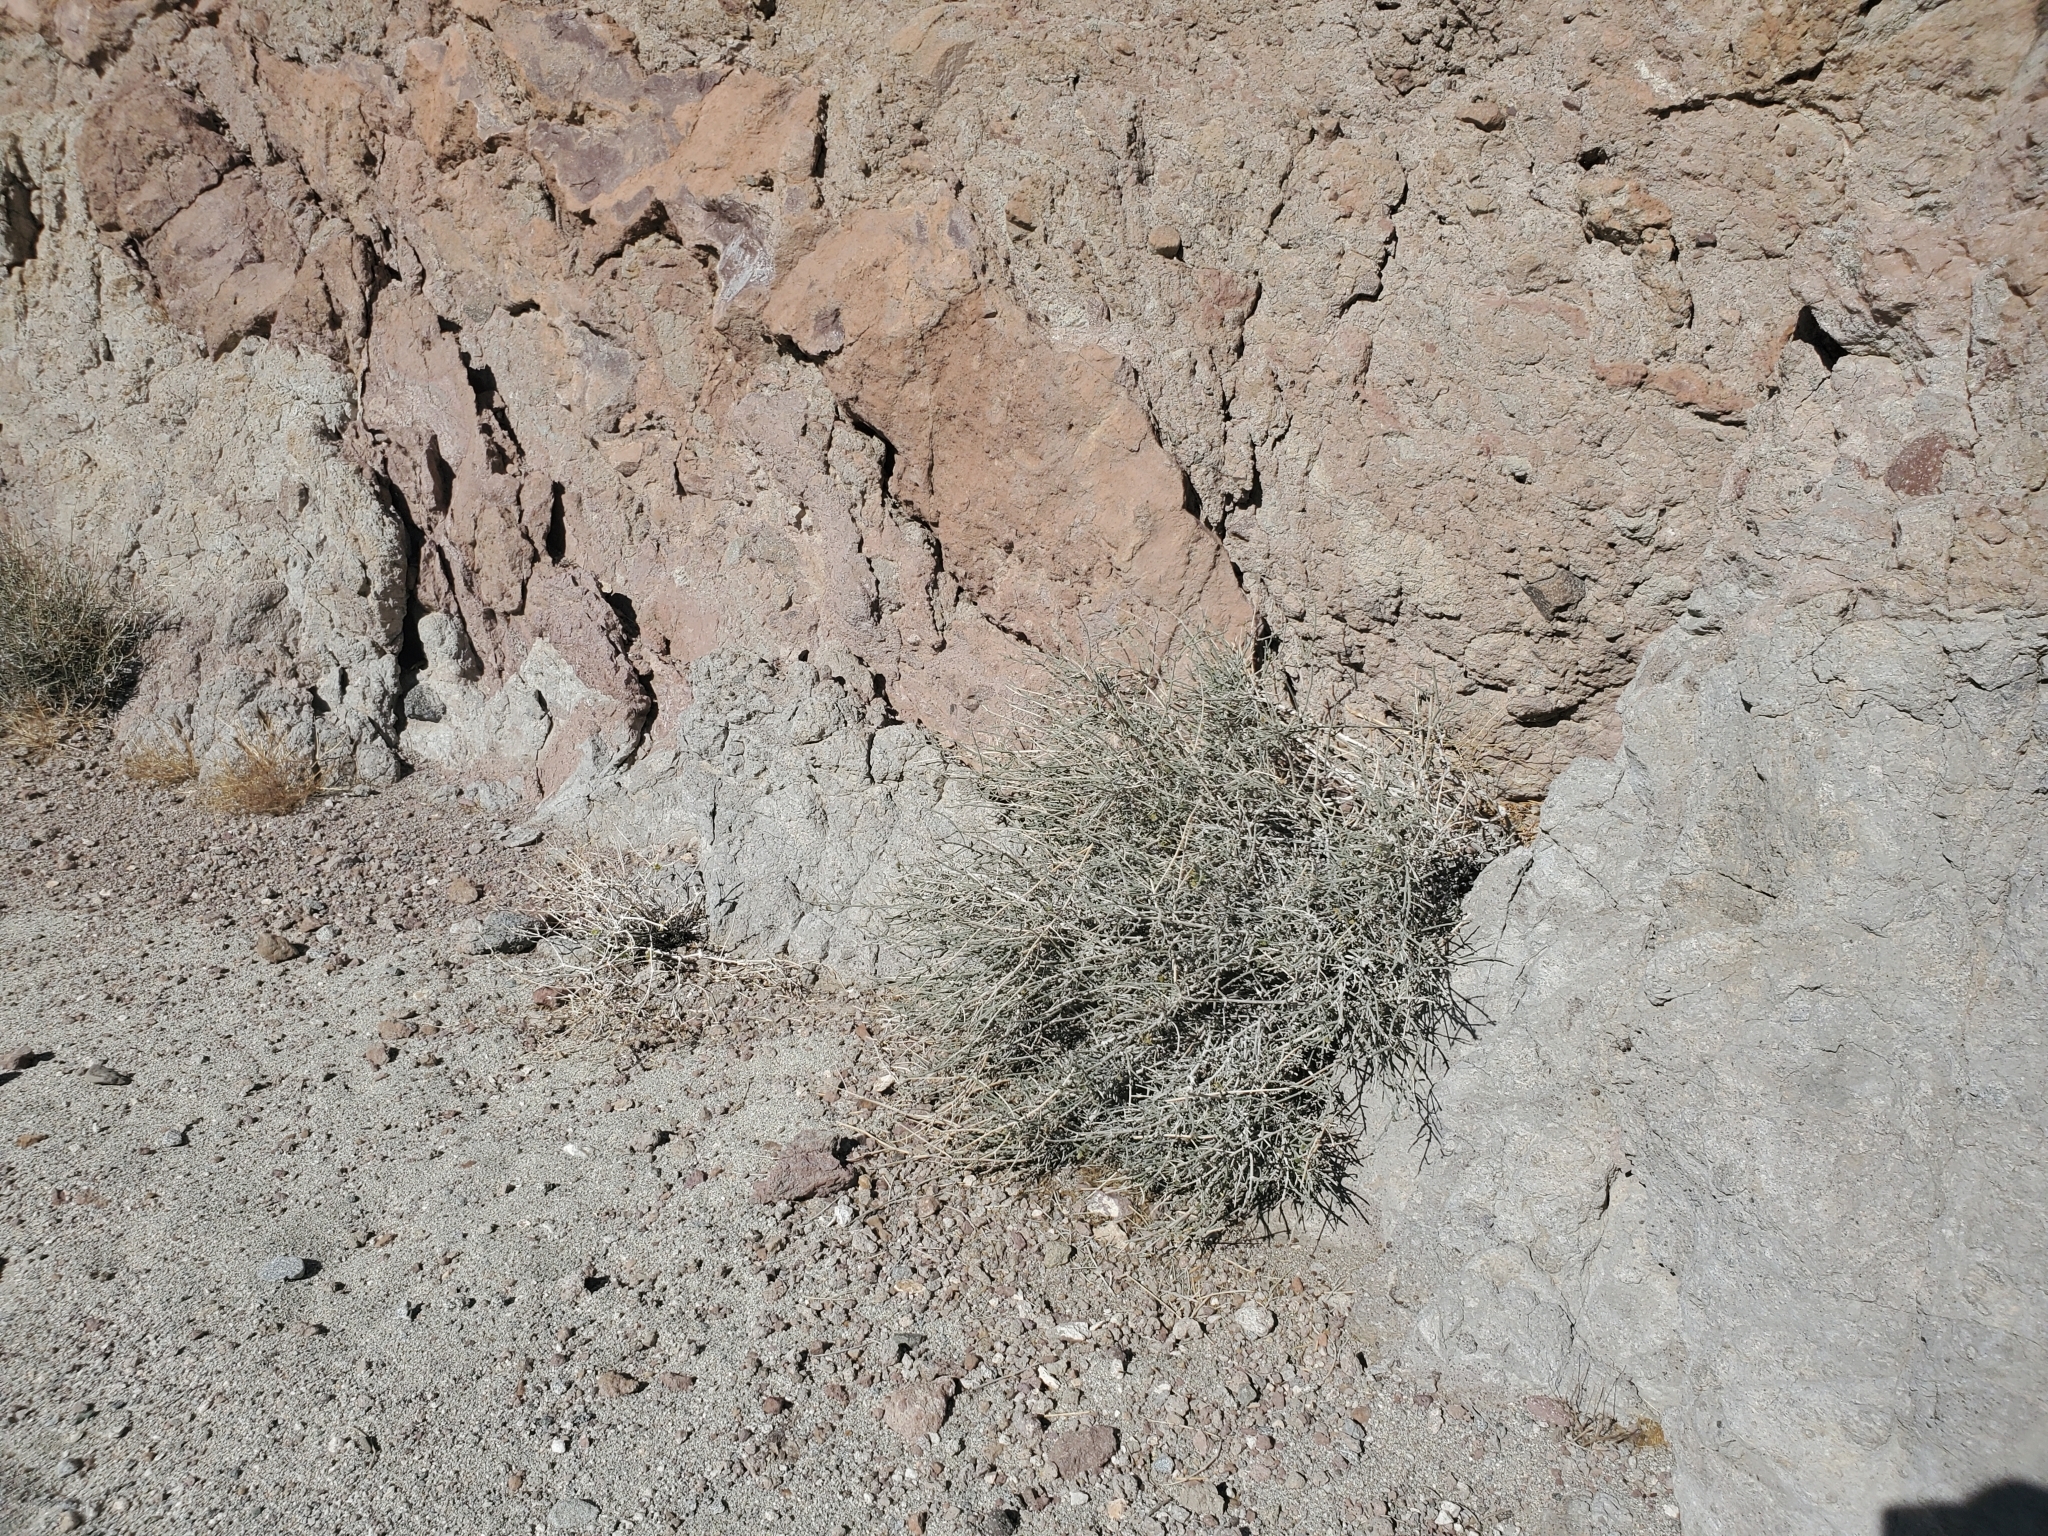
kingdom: Plantae
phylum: Tracheophyta
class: Magnoliopsida
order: Lamiales
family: Acanthaceae
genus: Justicia
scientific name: Justicia californica
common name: Chuparosa-honeysuckle
